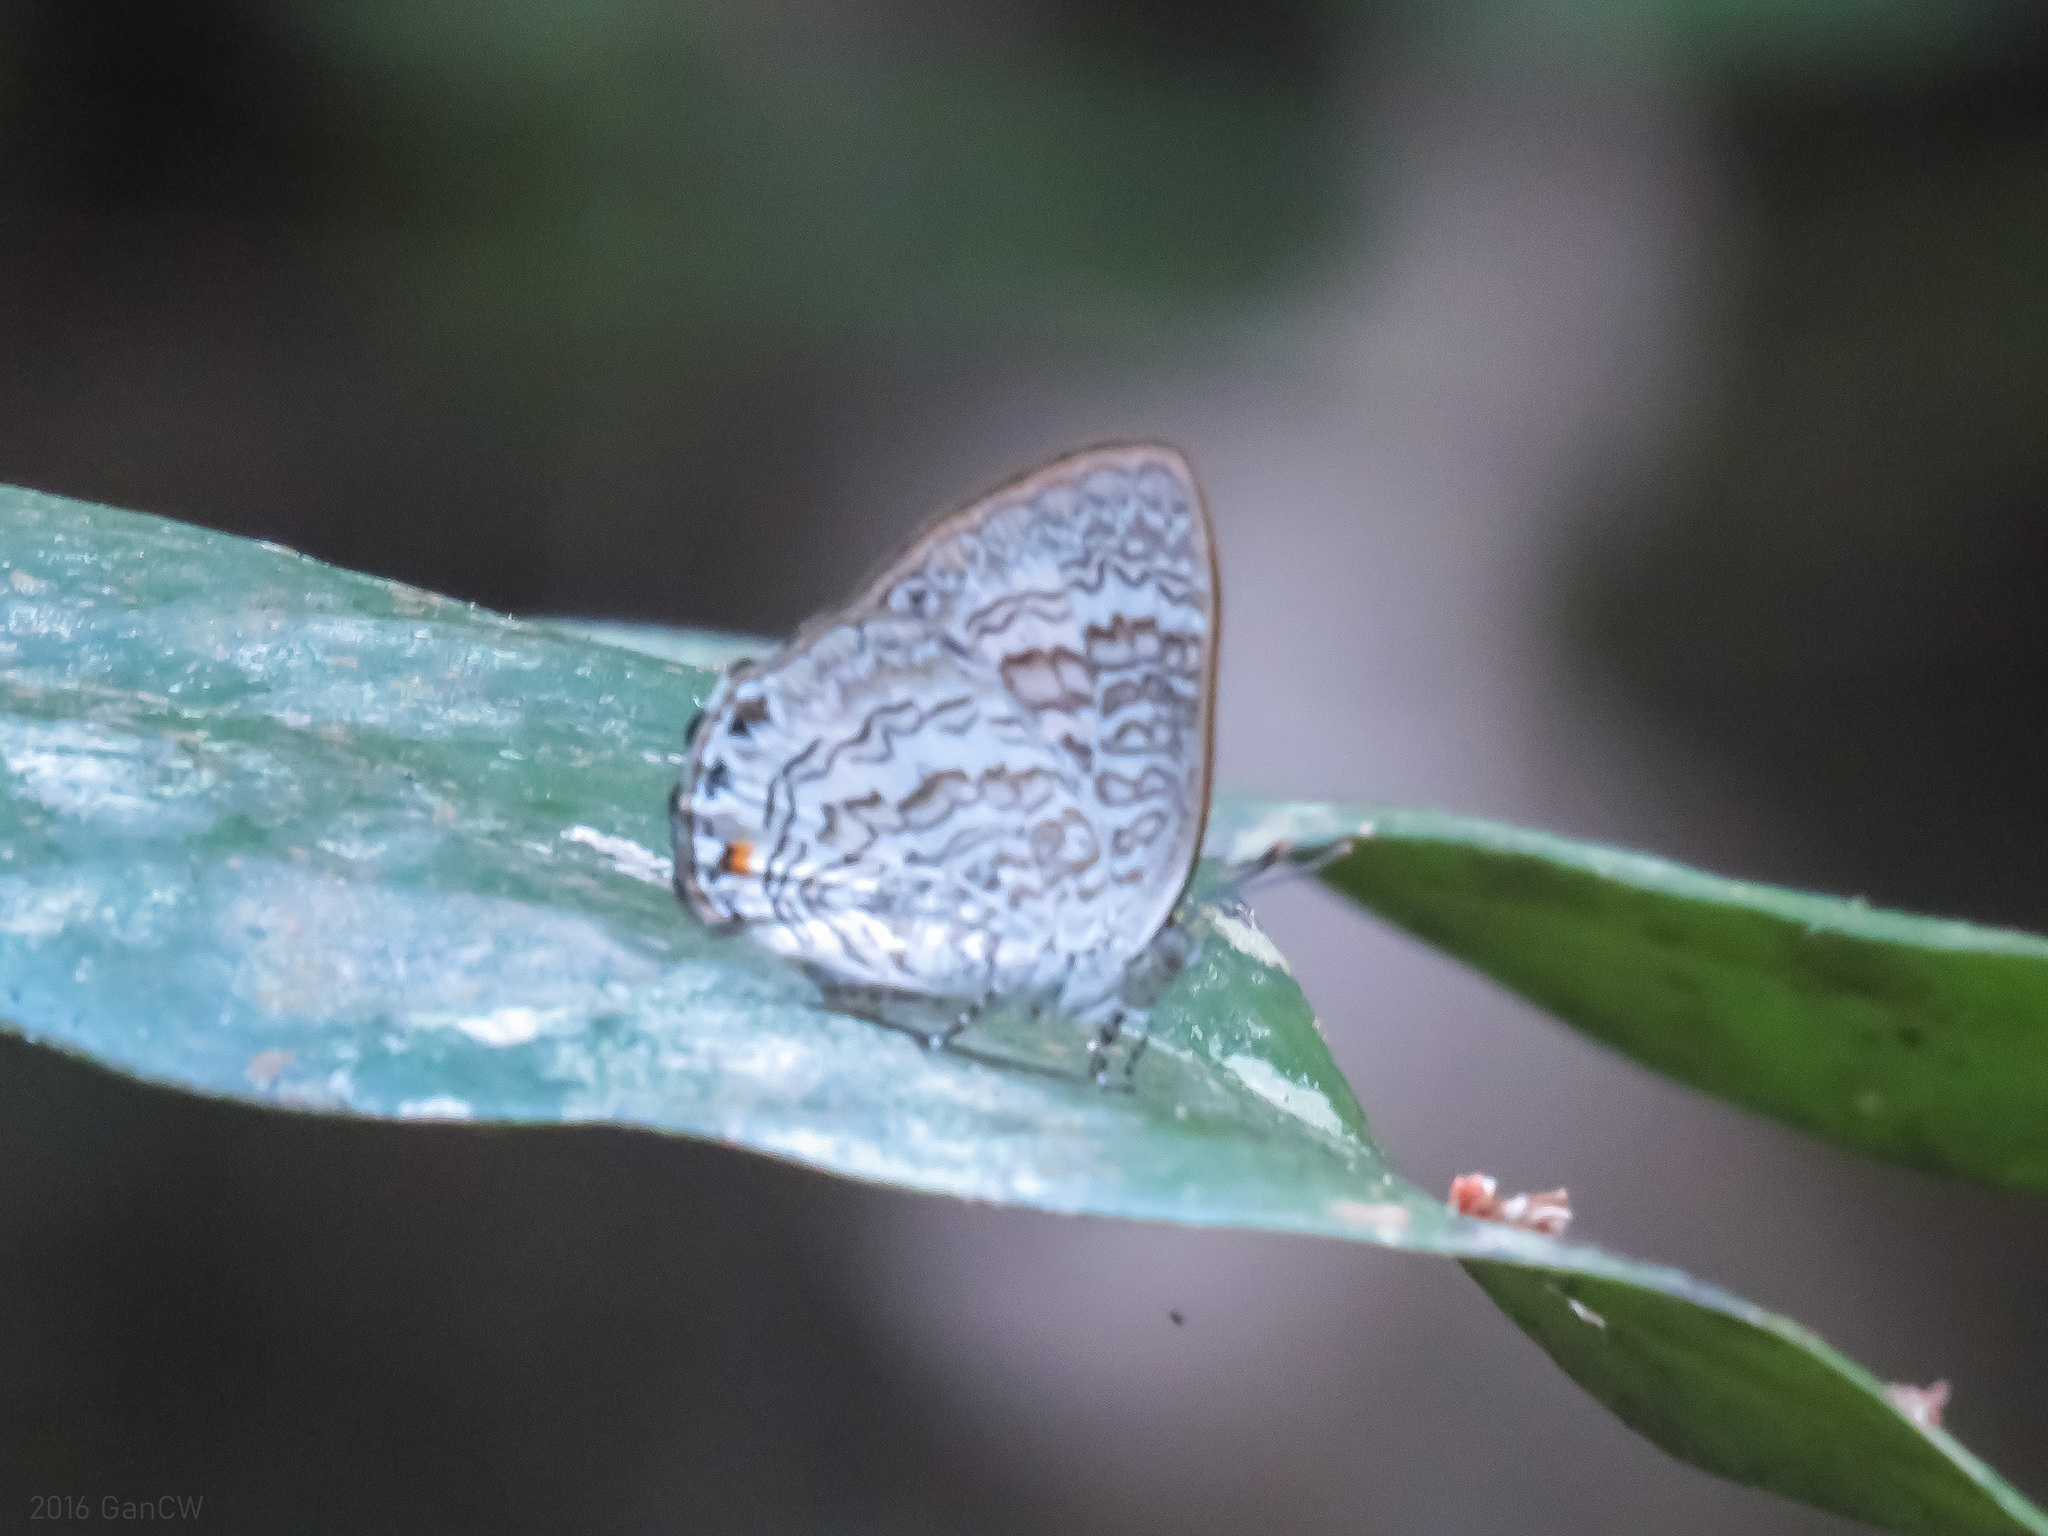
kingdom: Animalia
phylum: Arthropoda
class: Insecta
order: Lepidoptera
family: Lycaenidae
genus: Poritia
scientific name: Poritia erycinoides
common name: Blue gem
